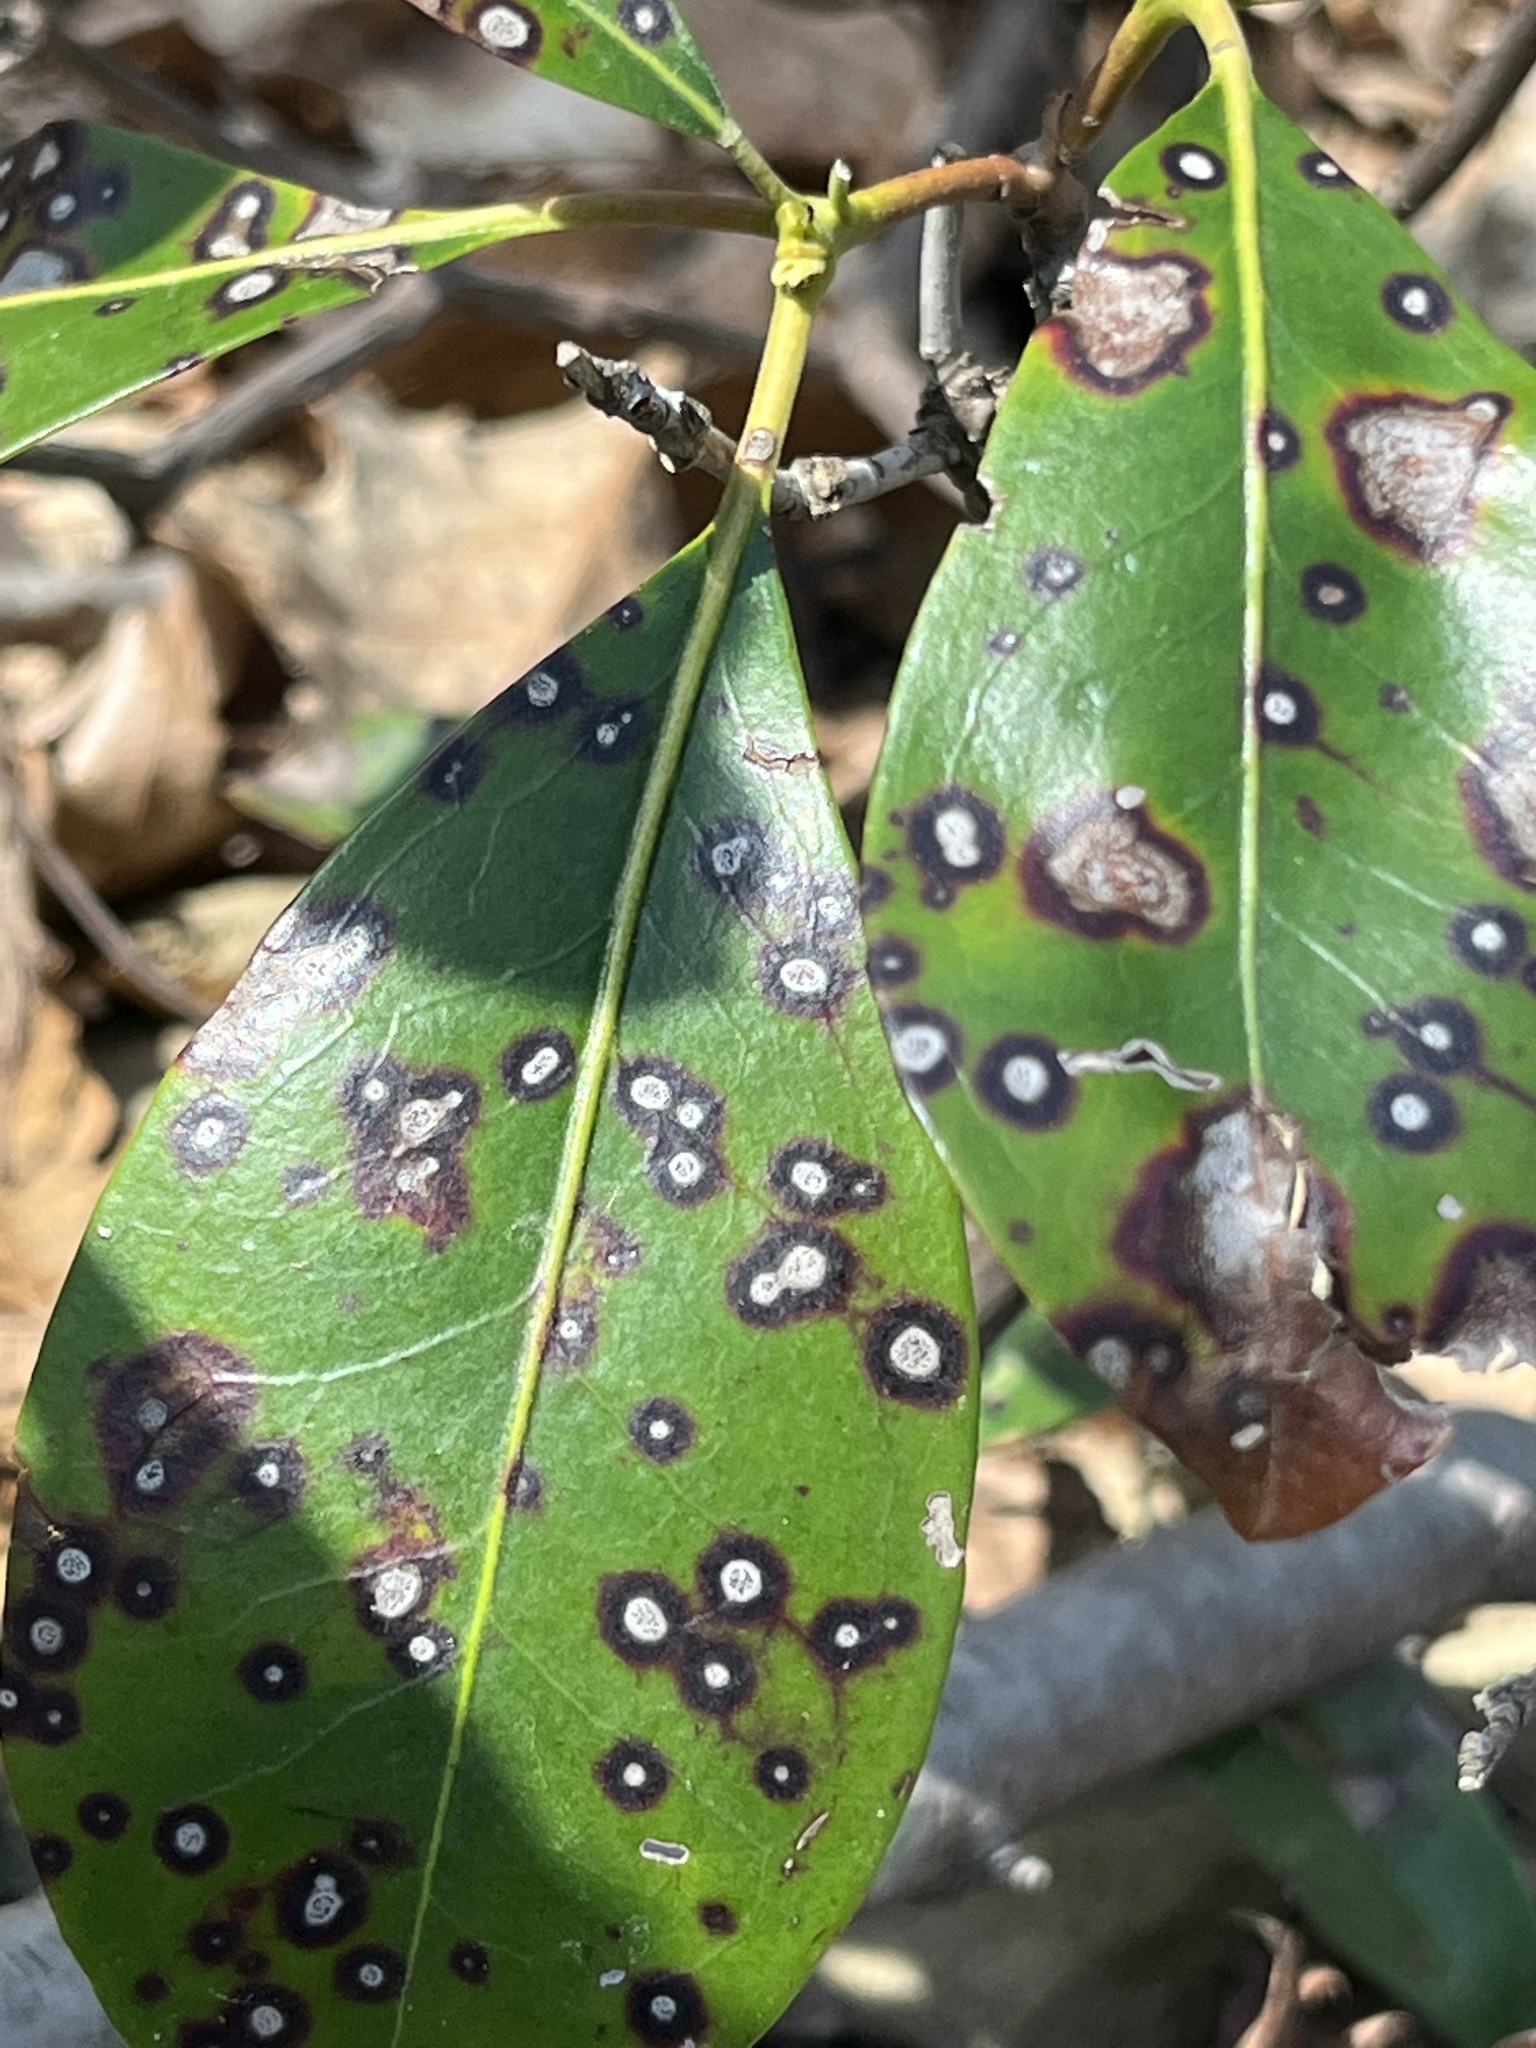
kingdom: Fungi
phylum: Ascomycota
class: Dothideomycetes
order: Mycosphaerellales
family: Mycosphaerellaceae
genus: Mycosphaerella
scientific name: Mycosphaerella colorata
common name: Mountain laurel leaf spot
